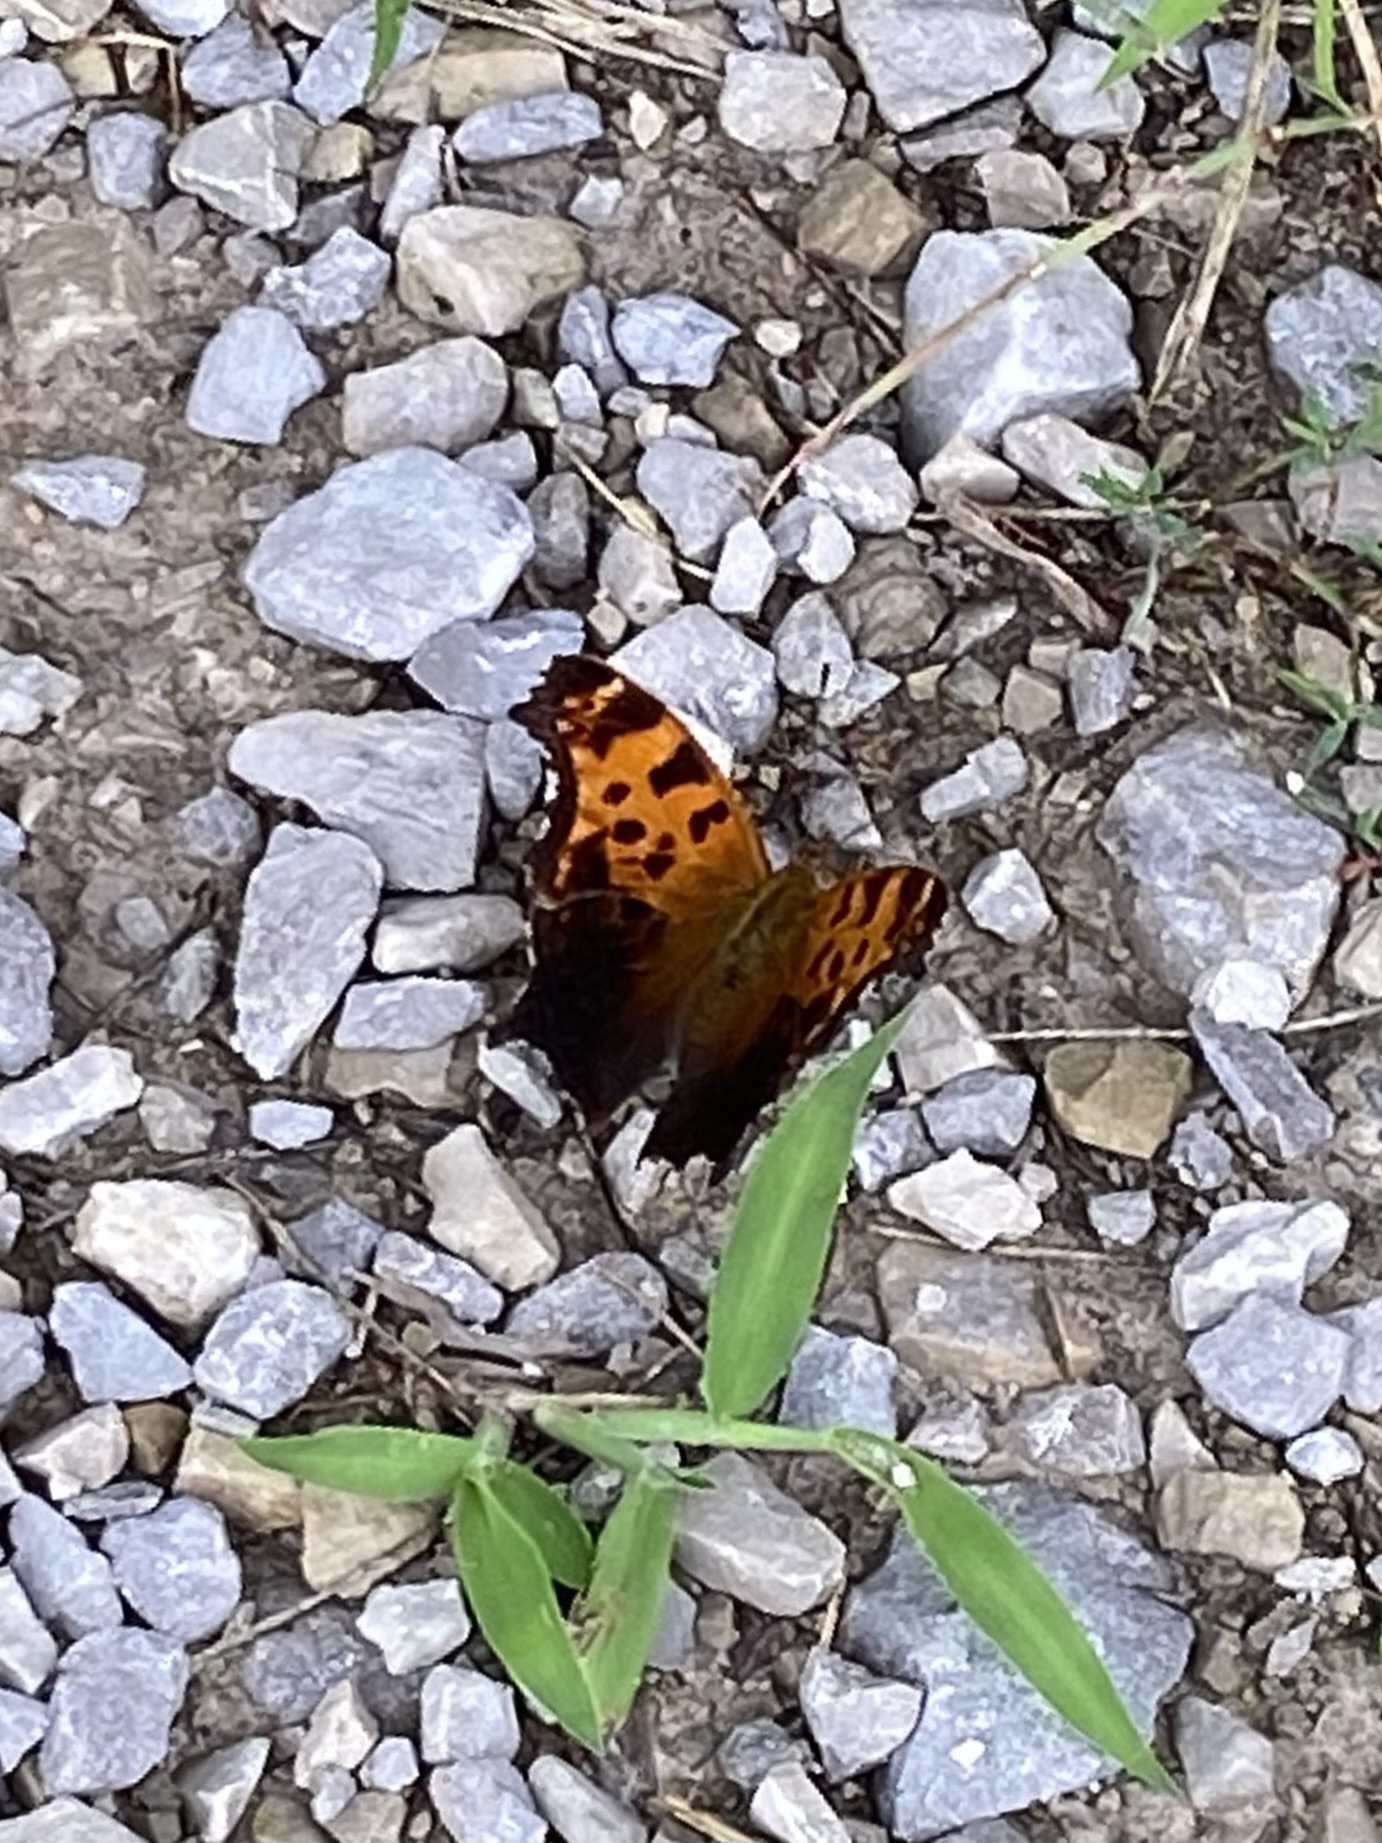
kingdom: Animalia
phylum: Arthropoda
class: Insecta
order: Lepidoptera
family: Nymphalidae
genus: Polygonia
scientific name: Polygonia comma
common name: Eastern comma
